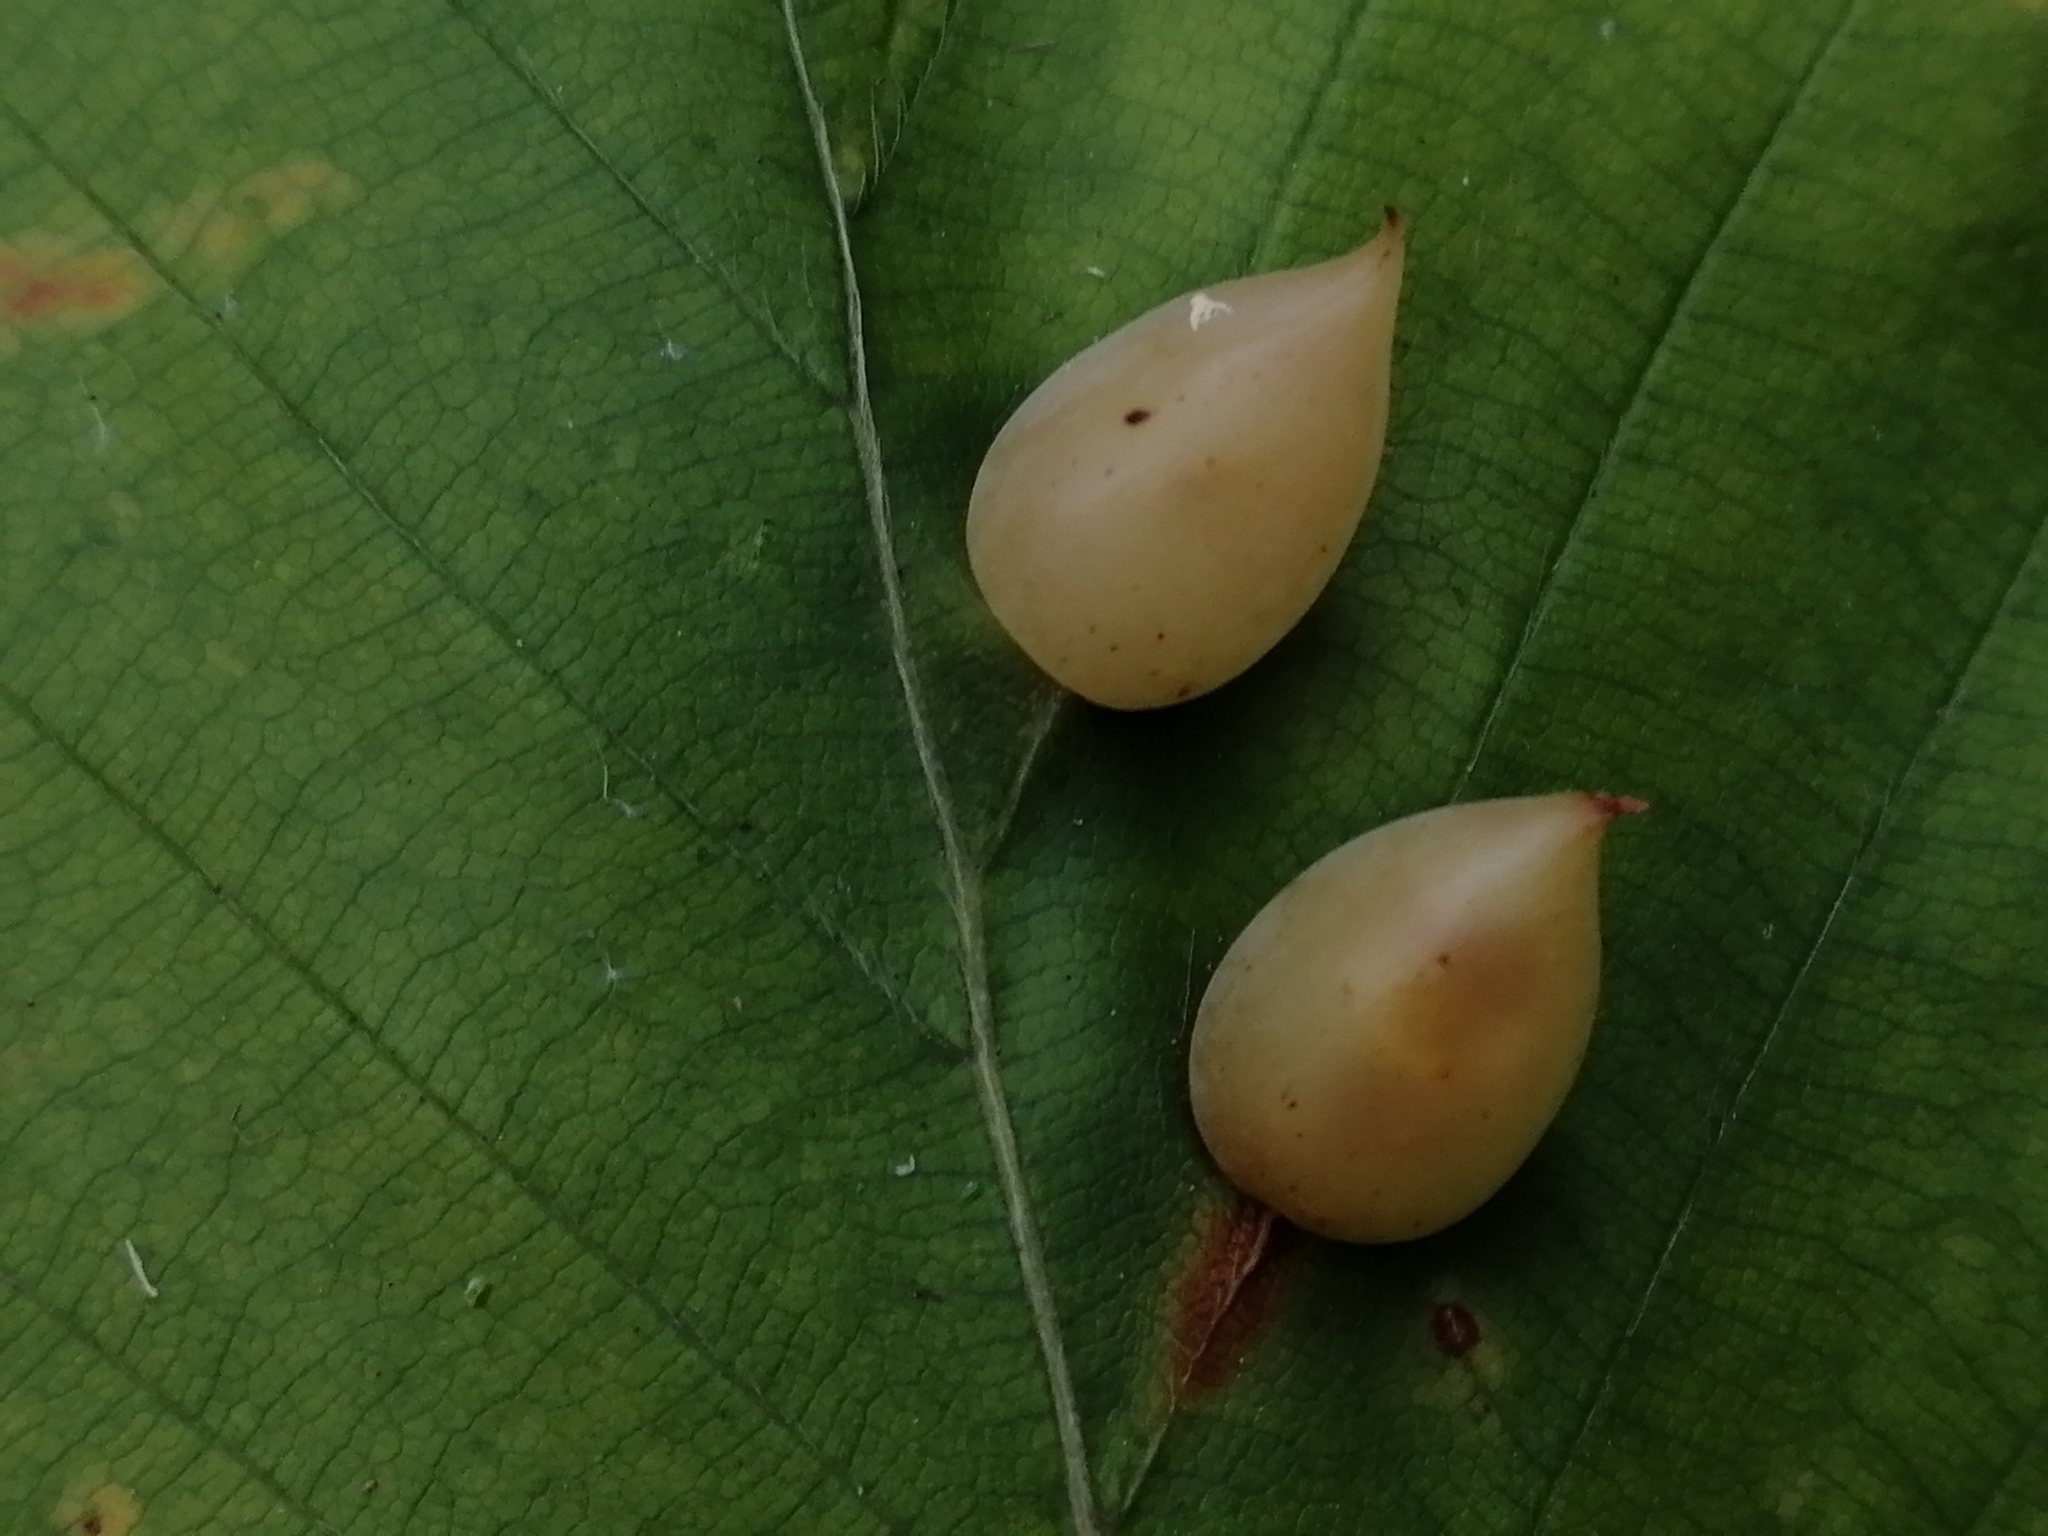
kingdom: Animalia
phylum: Arthropoda
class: Insecta
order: Diptera
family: Cecidomyiidae
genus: Mikiola
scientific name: Mikiola fagi
